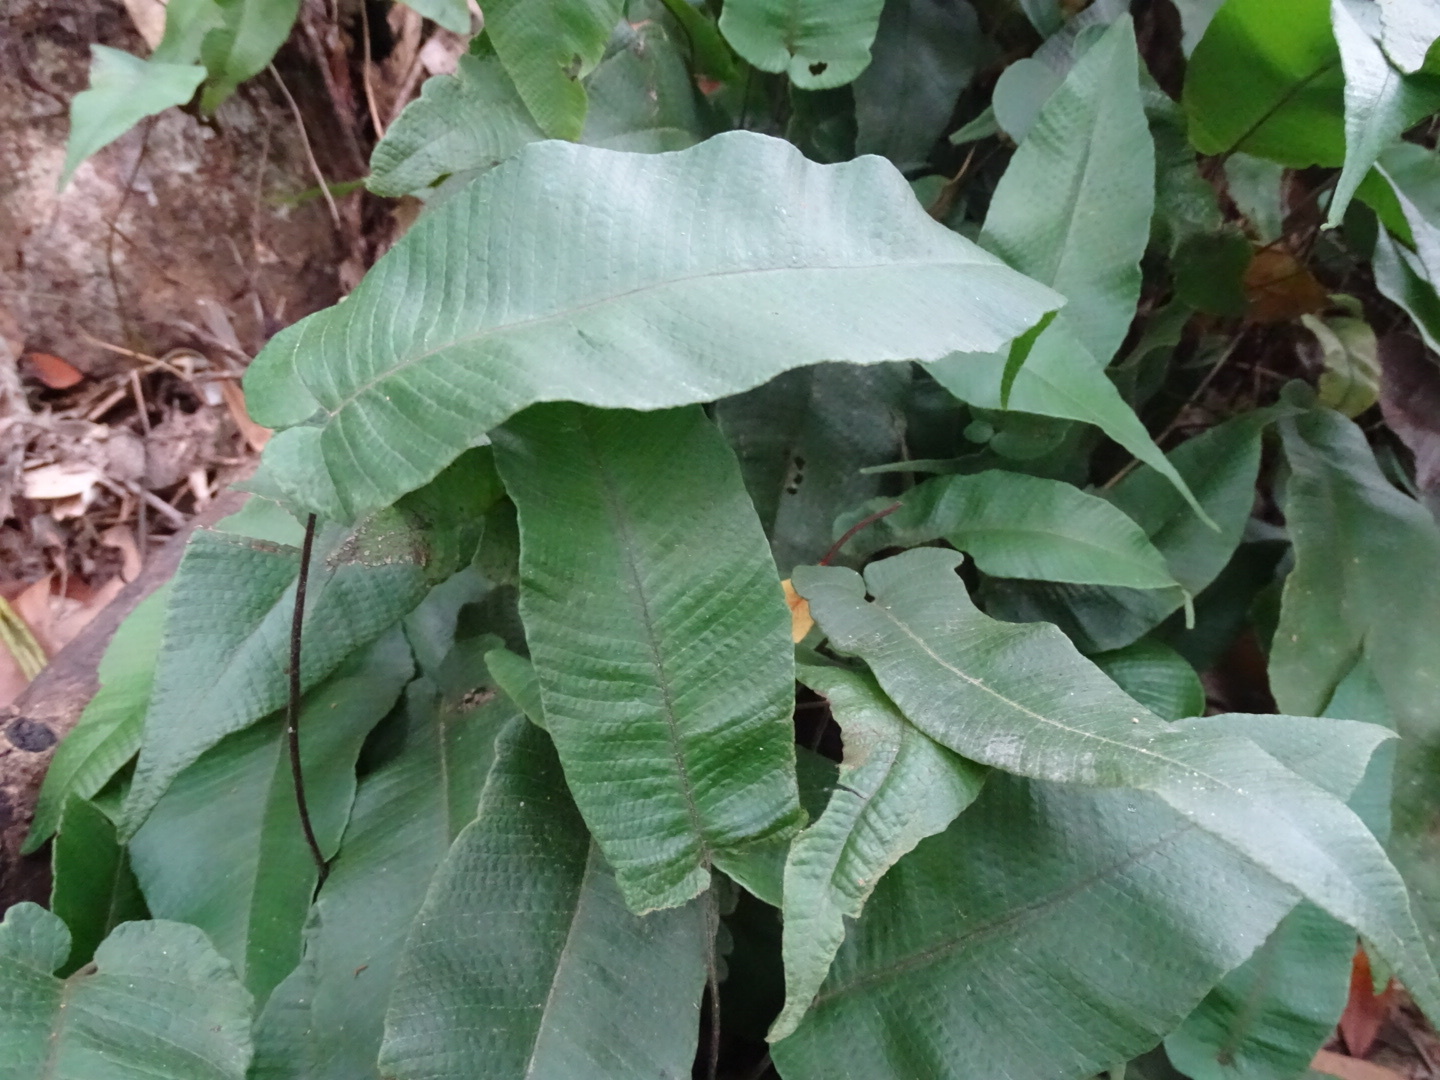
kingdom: Plantae
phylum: Tracheophyta
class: Polypodiopsida
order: Polypodiales
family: Thelypteridaceae
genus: Grypothrix
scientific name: Grypothrix simplex
